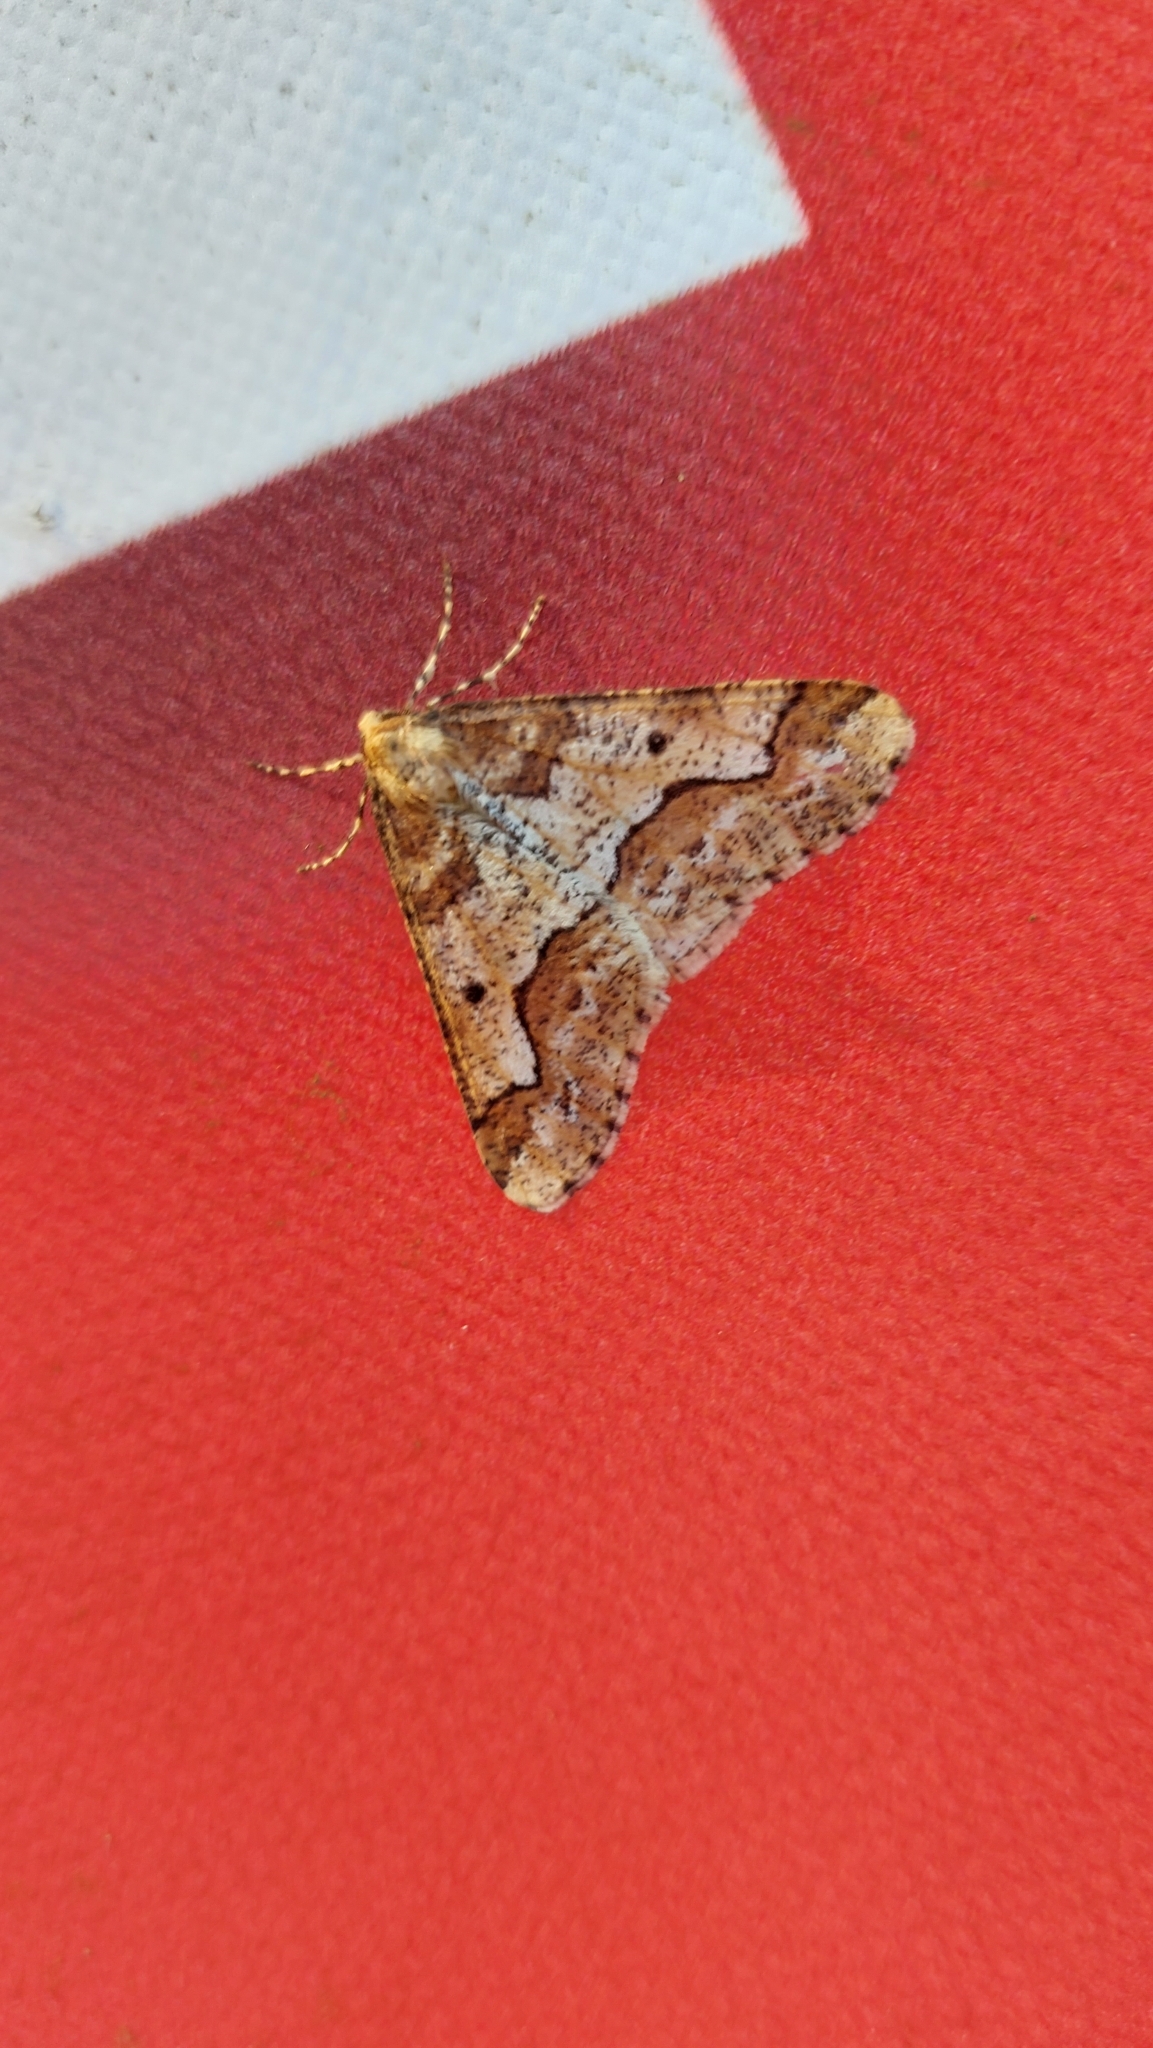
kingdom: Animalia
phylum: Arthropoda
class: Insecta
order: Lepidoptera
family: Geometridae
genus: Erannis
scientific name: Erannis defoliaria
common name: Mottled umber
